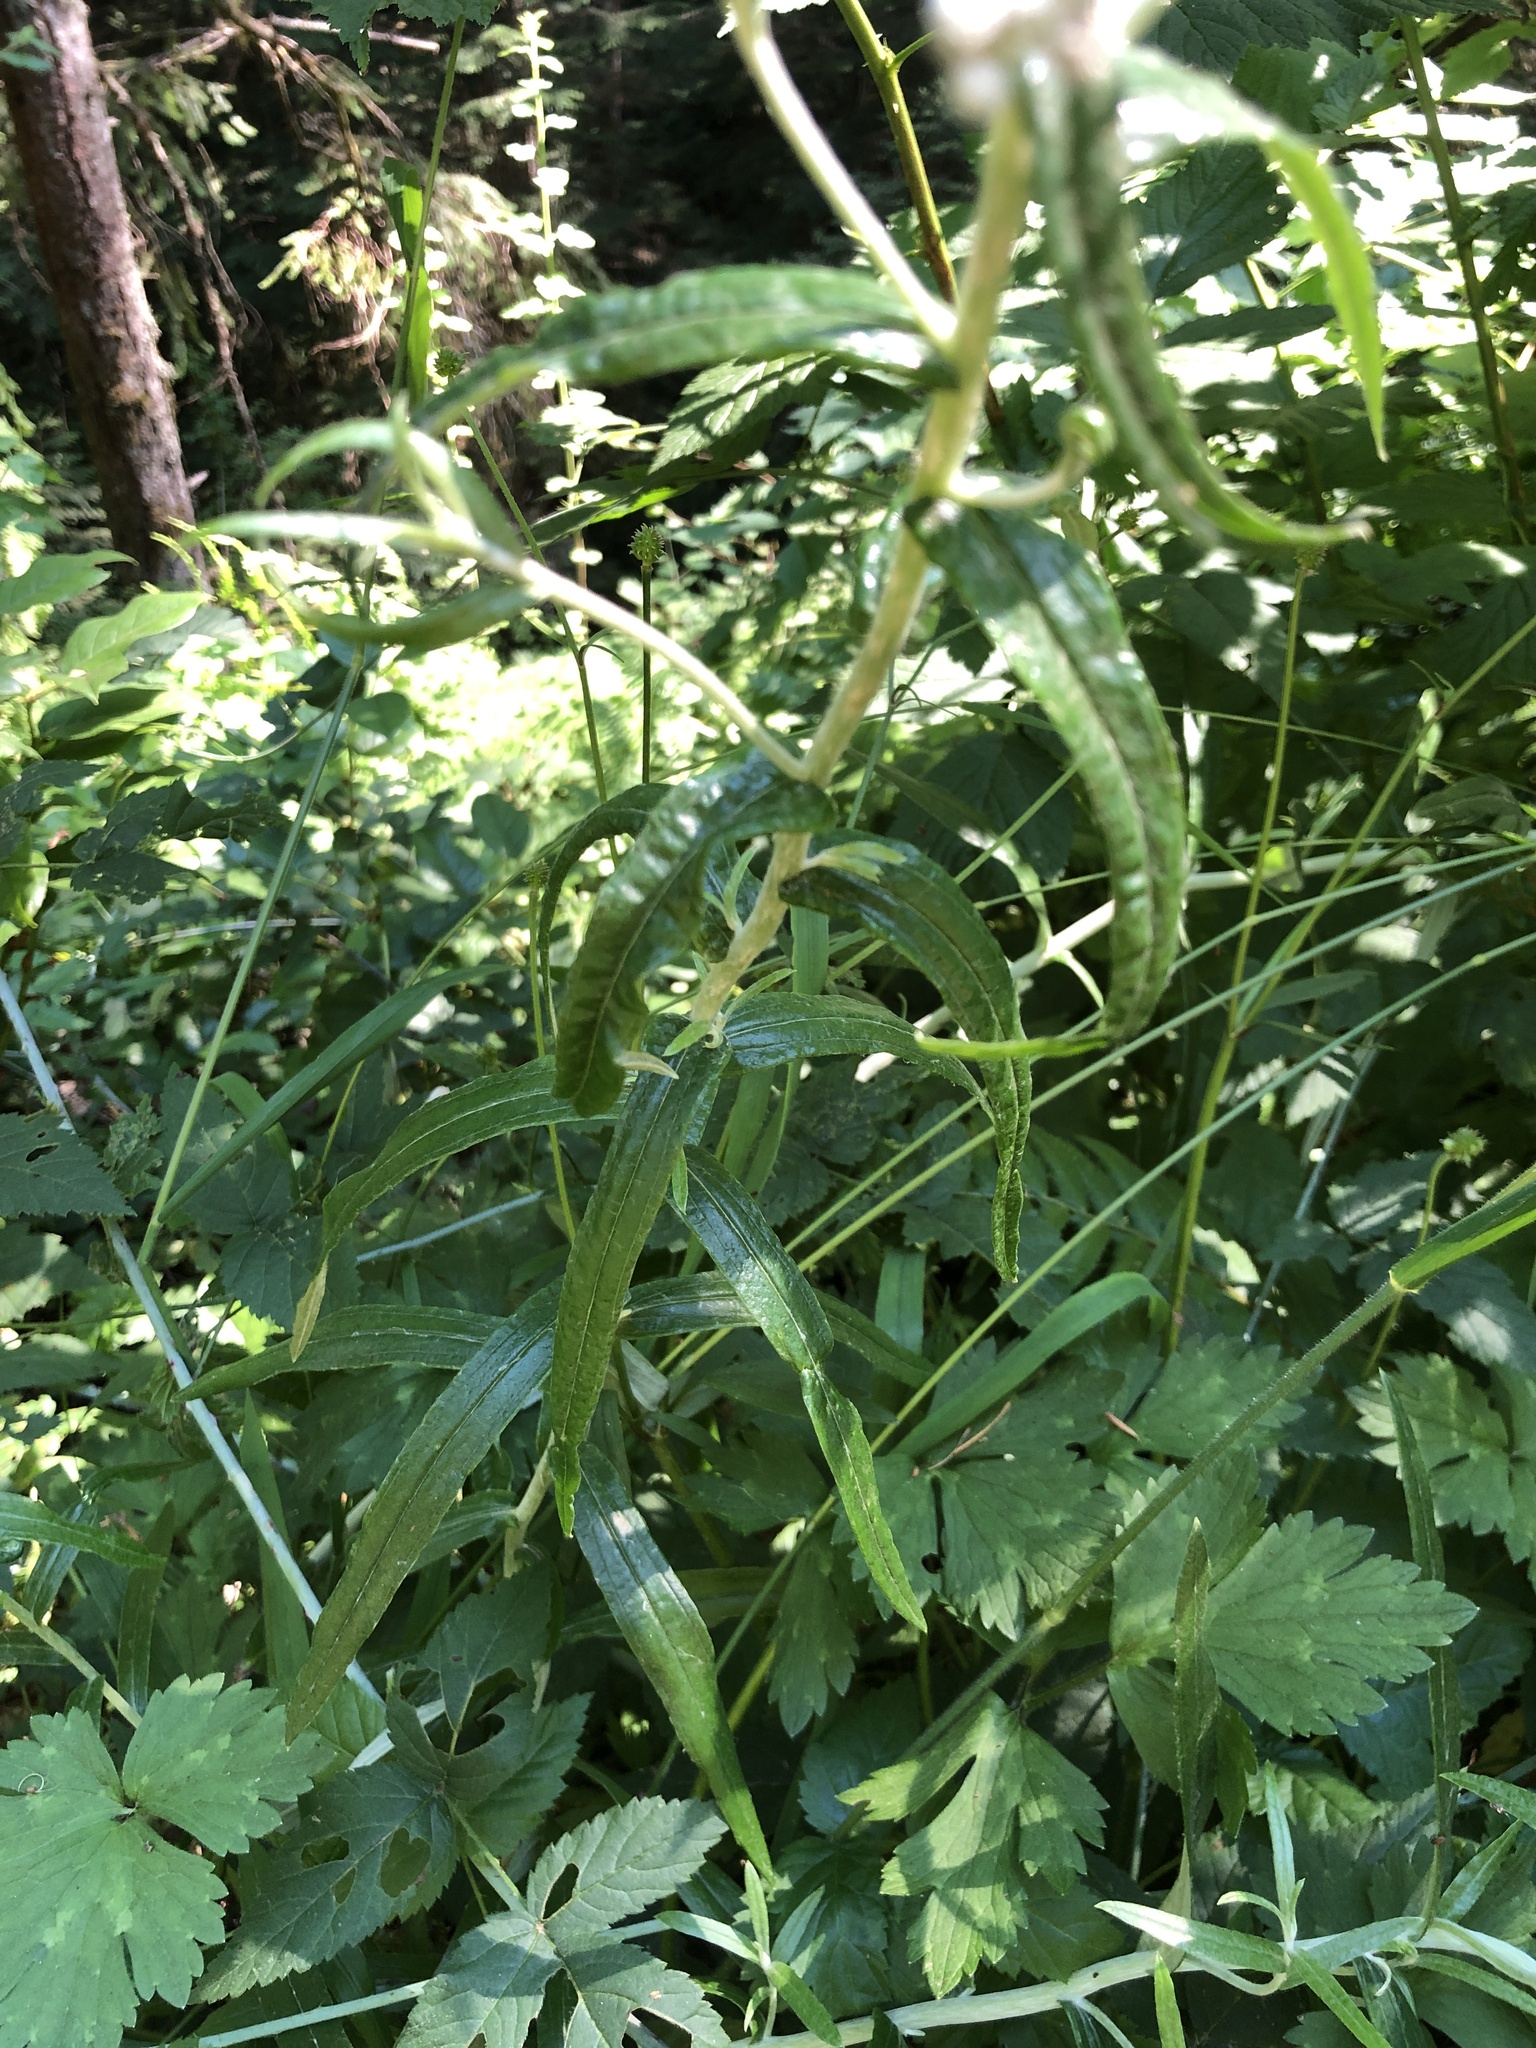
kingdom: Plantae
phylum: Tracheophyta
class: Magnoliopsida
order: Asterales
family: Asteraceae
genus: Anaphalis
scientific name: Anaphalis margaritacea
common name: Pearly everlasting
